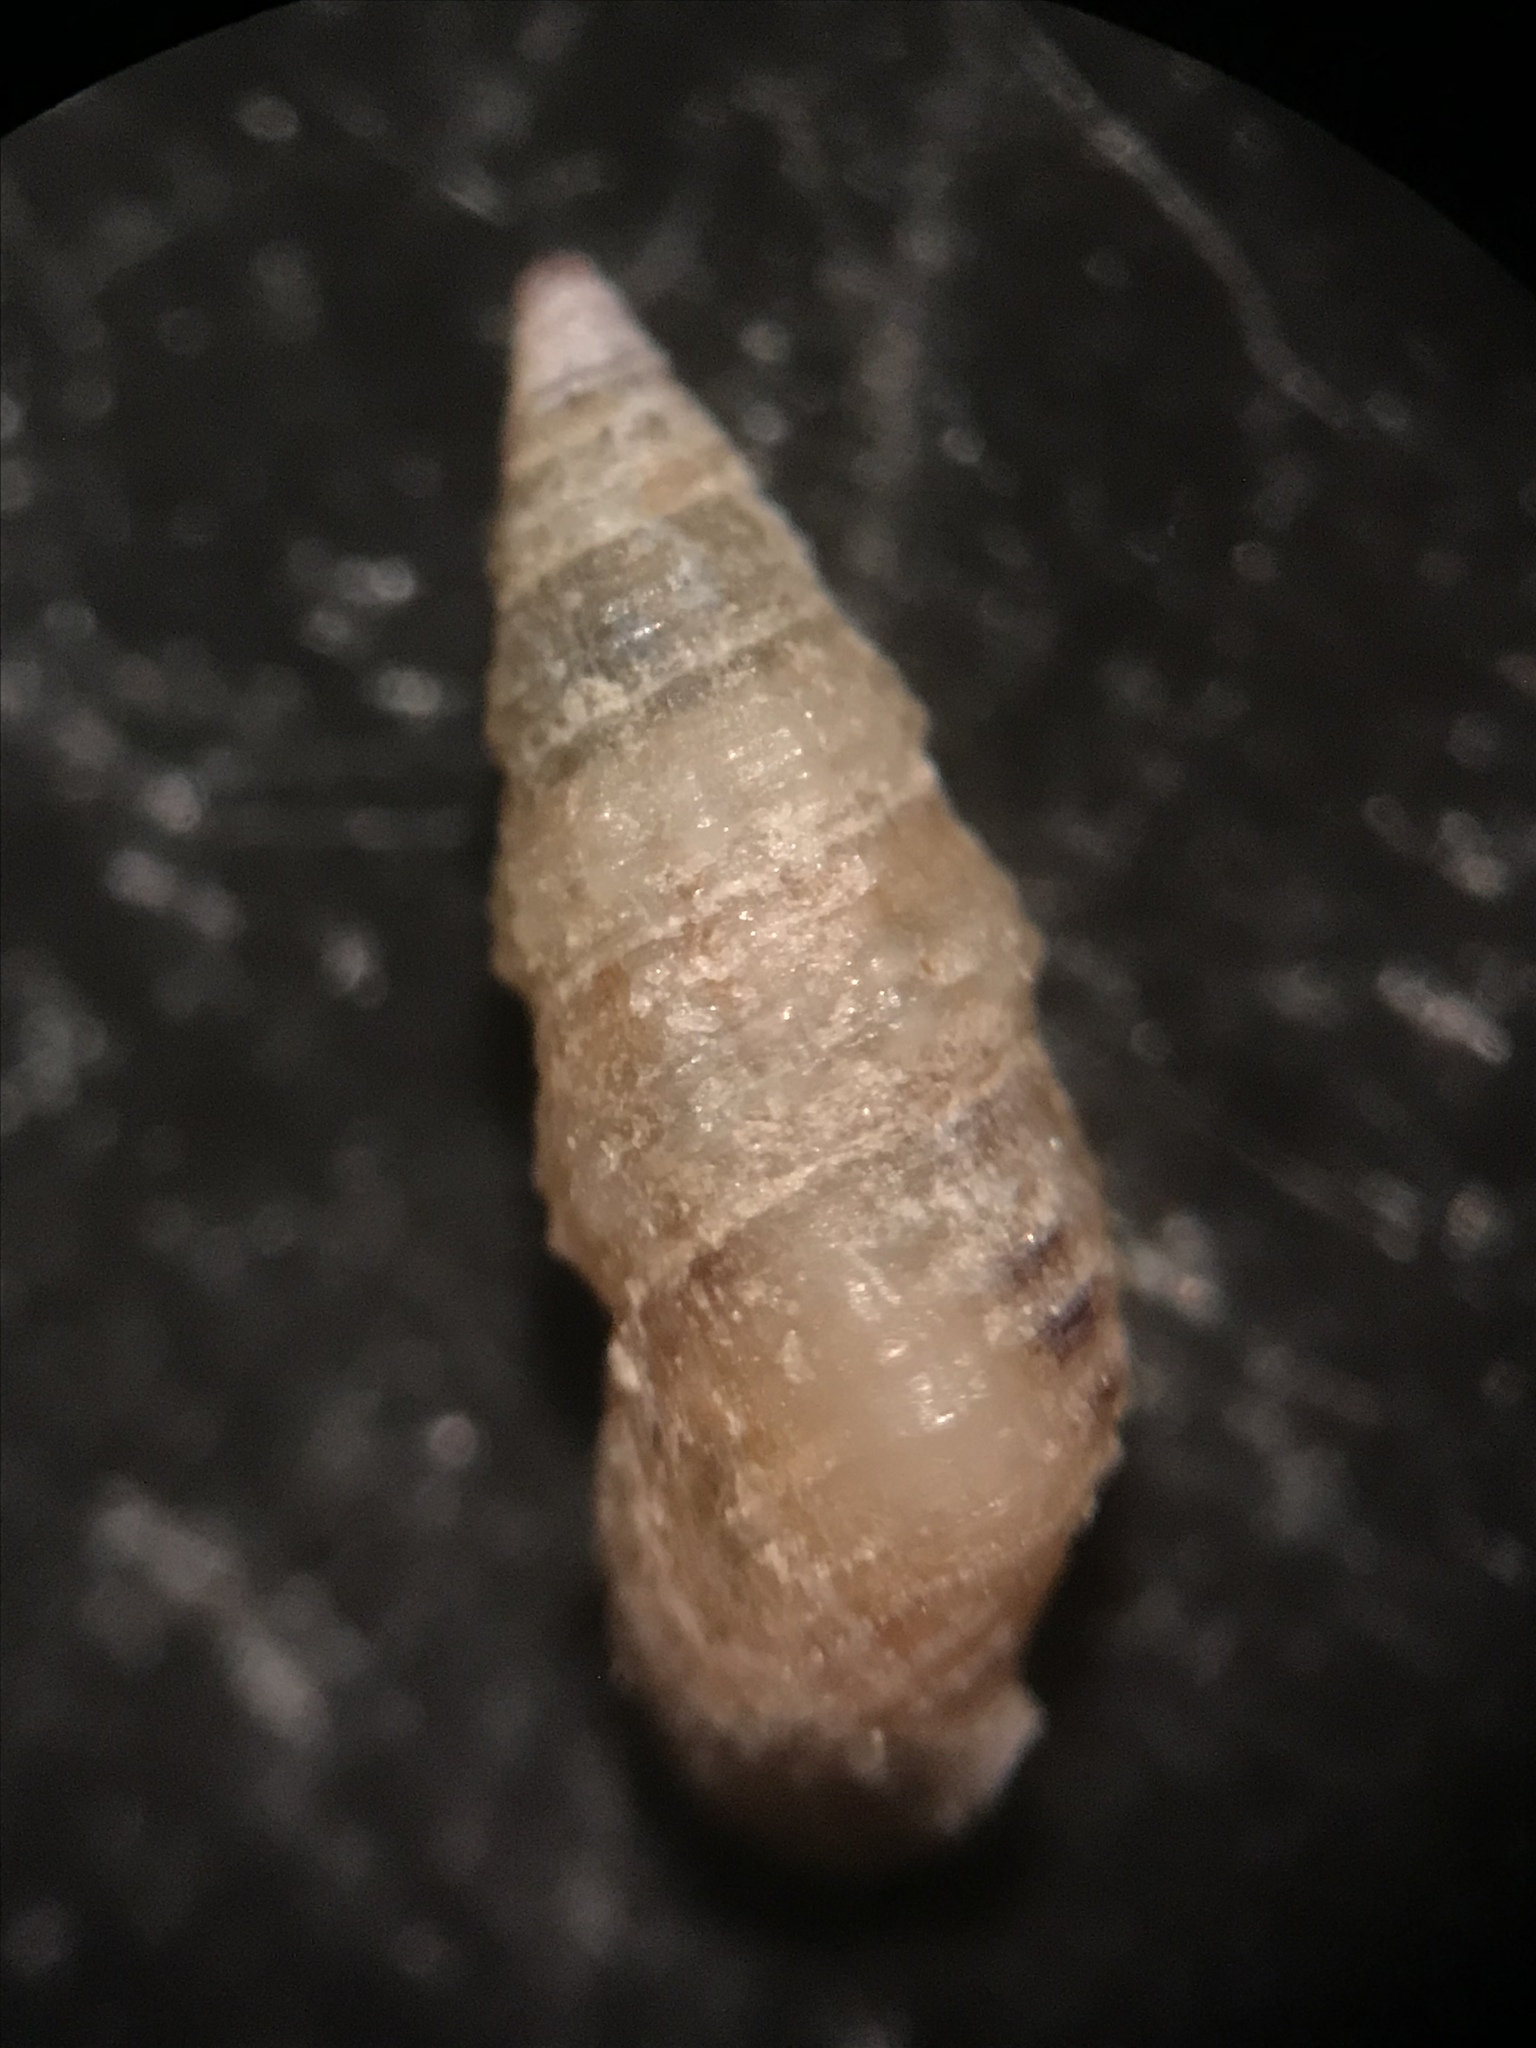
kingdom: Animalia
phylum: Mollusca
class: Gastropoda
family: Cerithiidae
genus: Bittiolum
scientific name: Bittiolum varium
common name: Grass cerith
